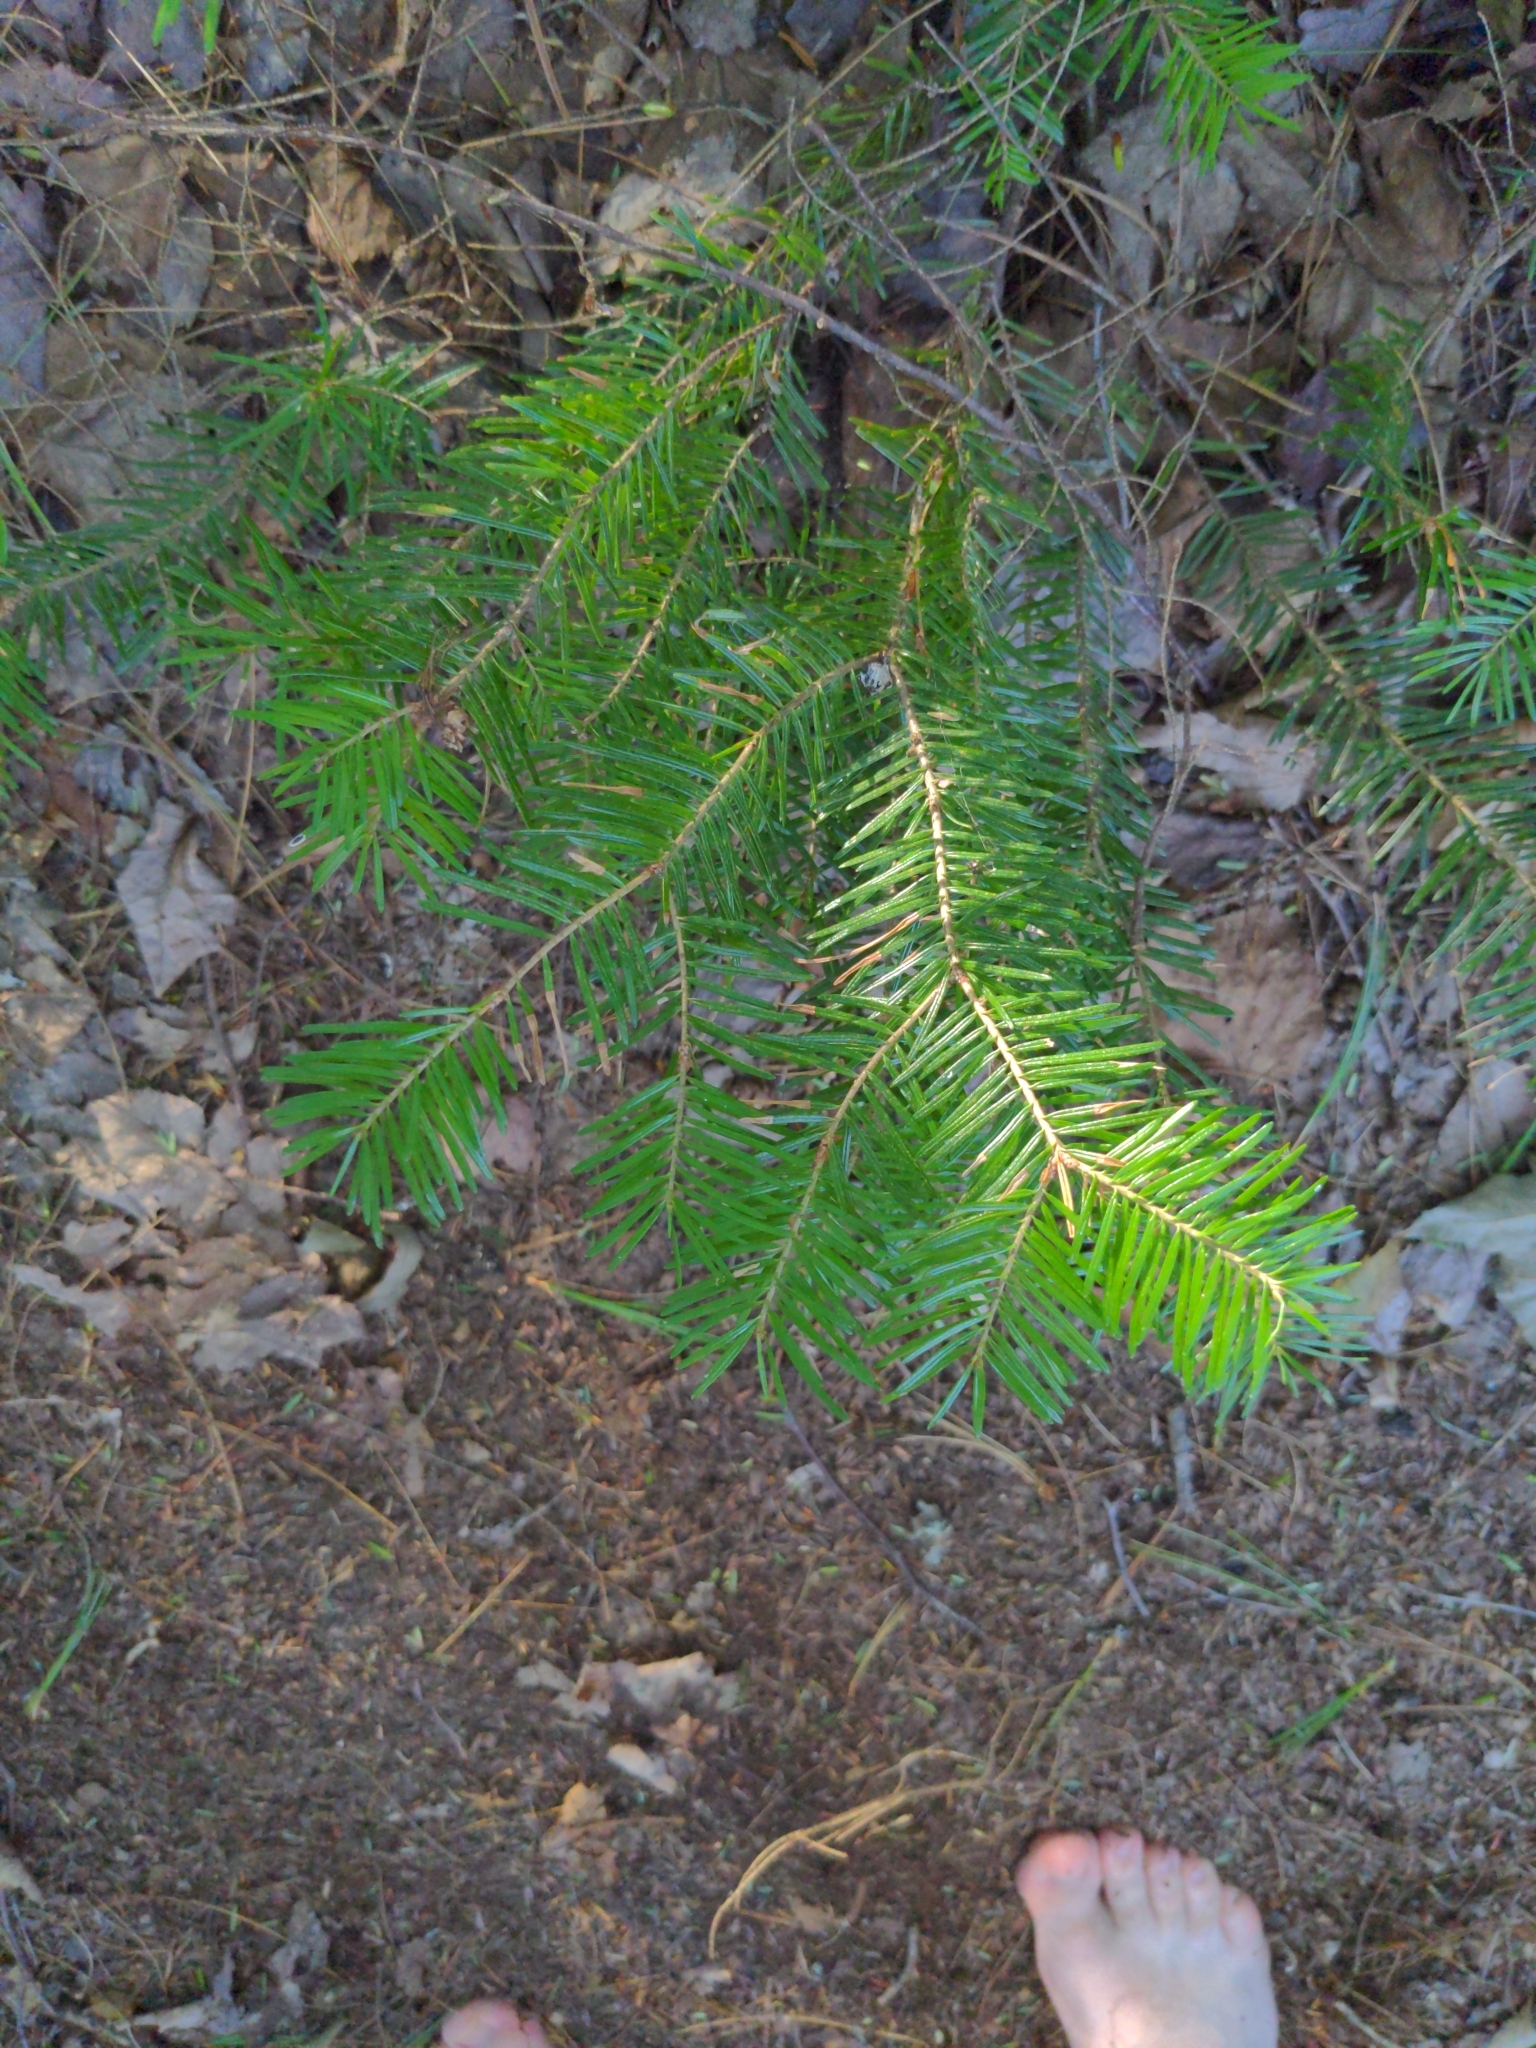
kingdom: Plantae
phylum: Tracheophyta
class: Pinopsida
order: Pinales
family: Pinaceae
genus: Abies
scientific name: Abies balsamea
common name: Balsam fir
